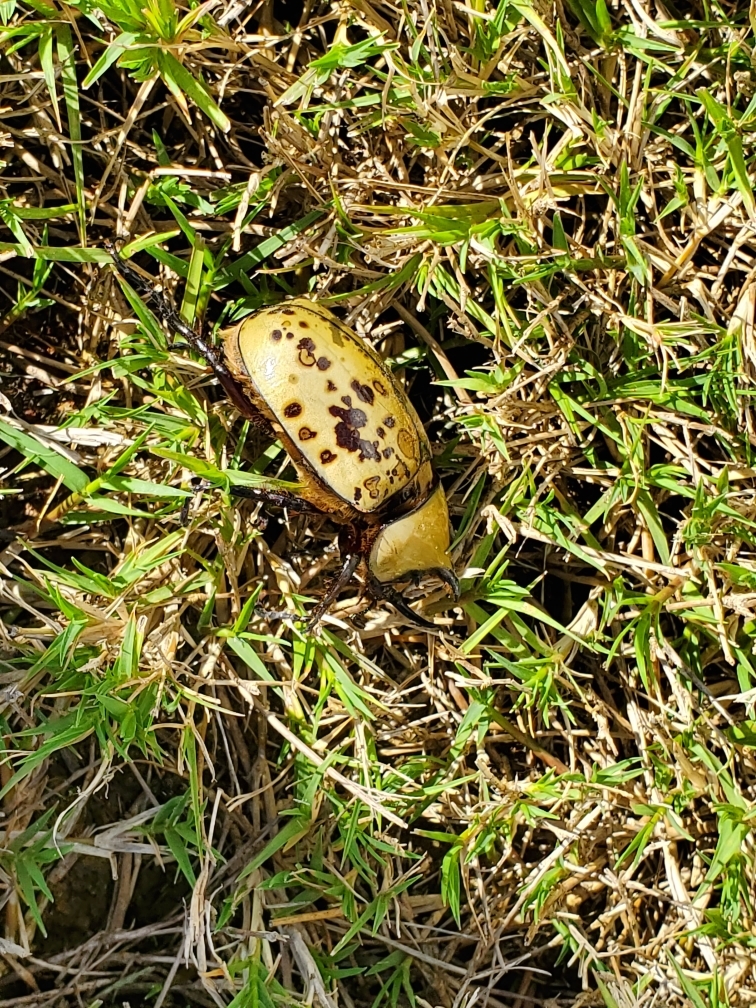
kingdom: Animalia
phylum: Arthropoda
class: Insecta
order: Coleoptera
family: Scarabaeidae
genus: Dynastes
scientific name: Dynastes tityus
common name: Eastern hercules beetle
